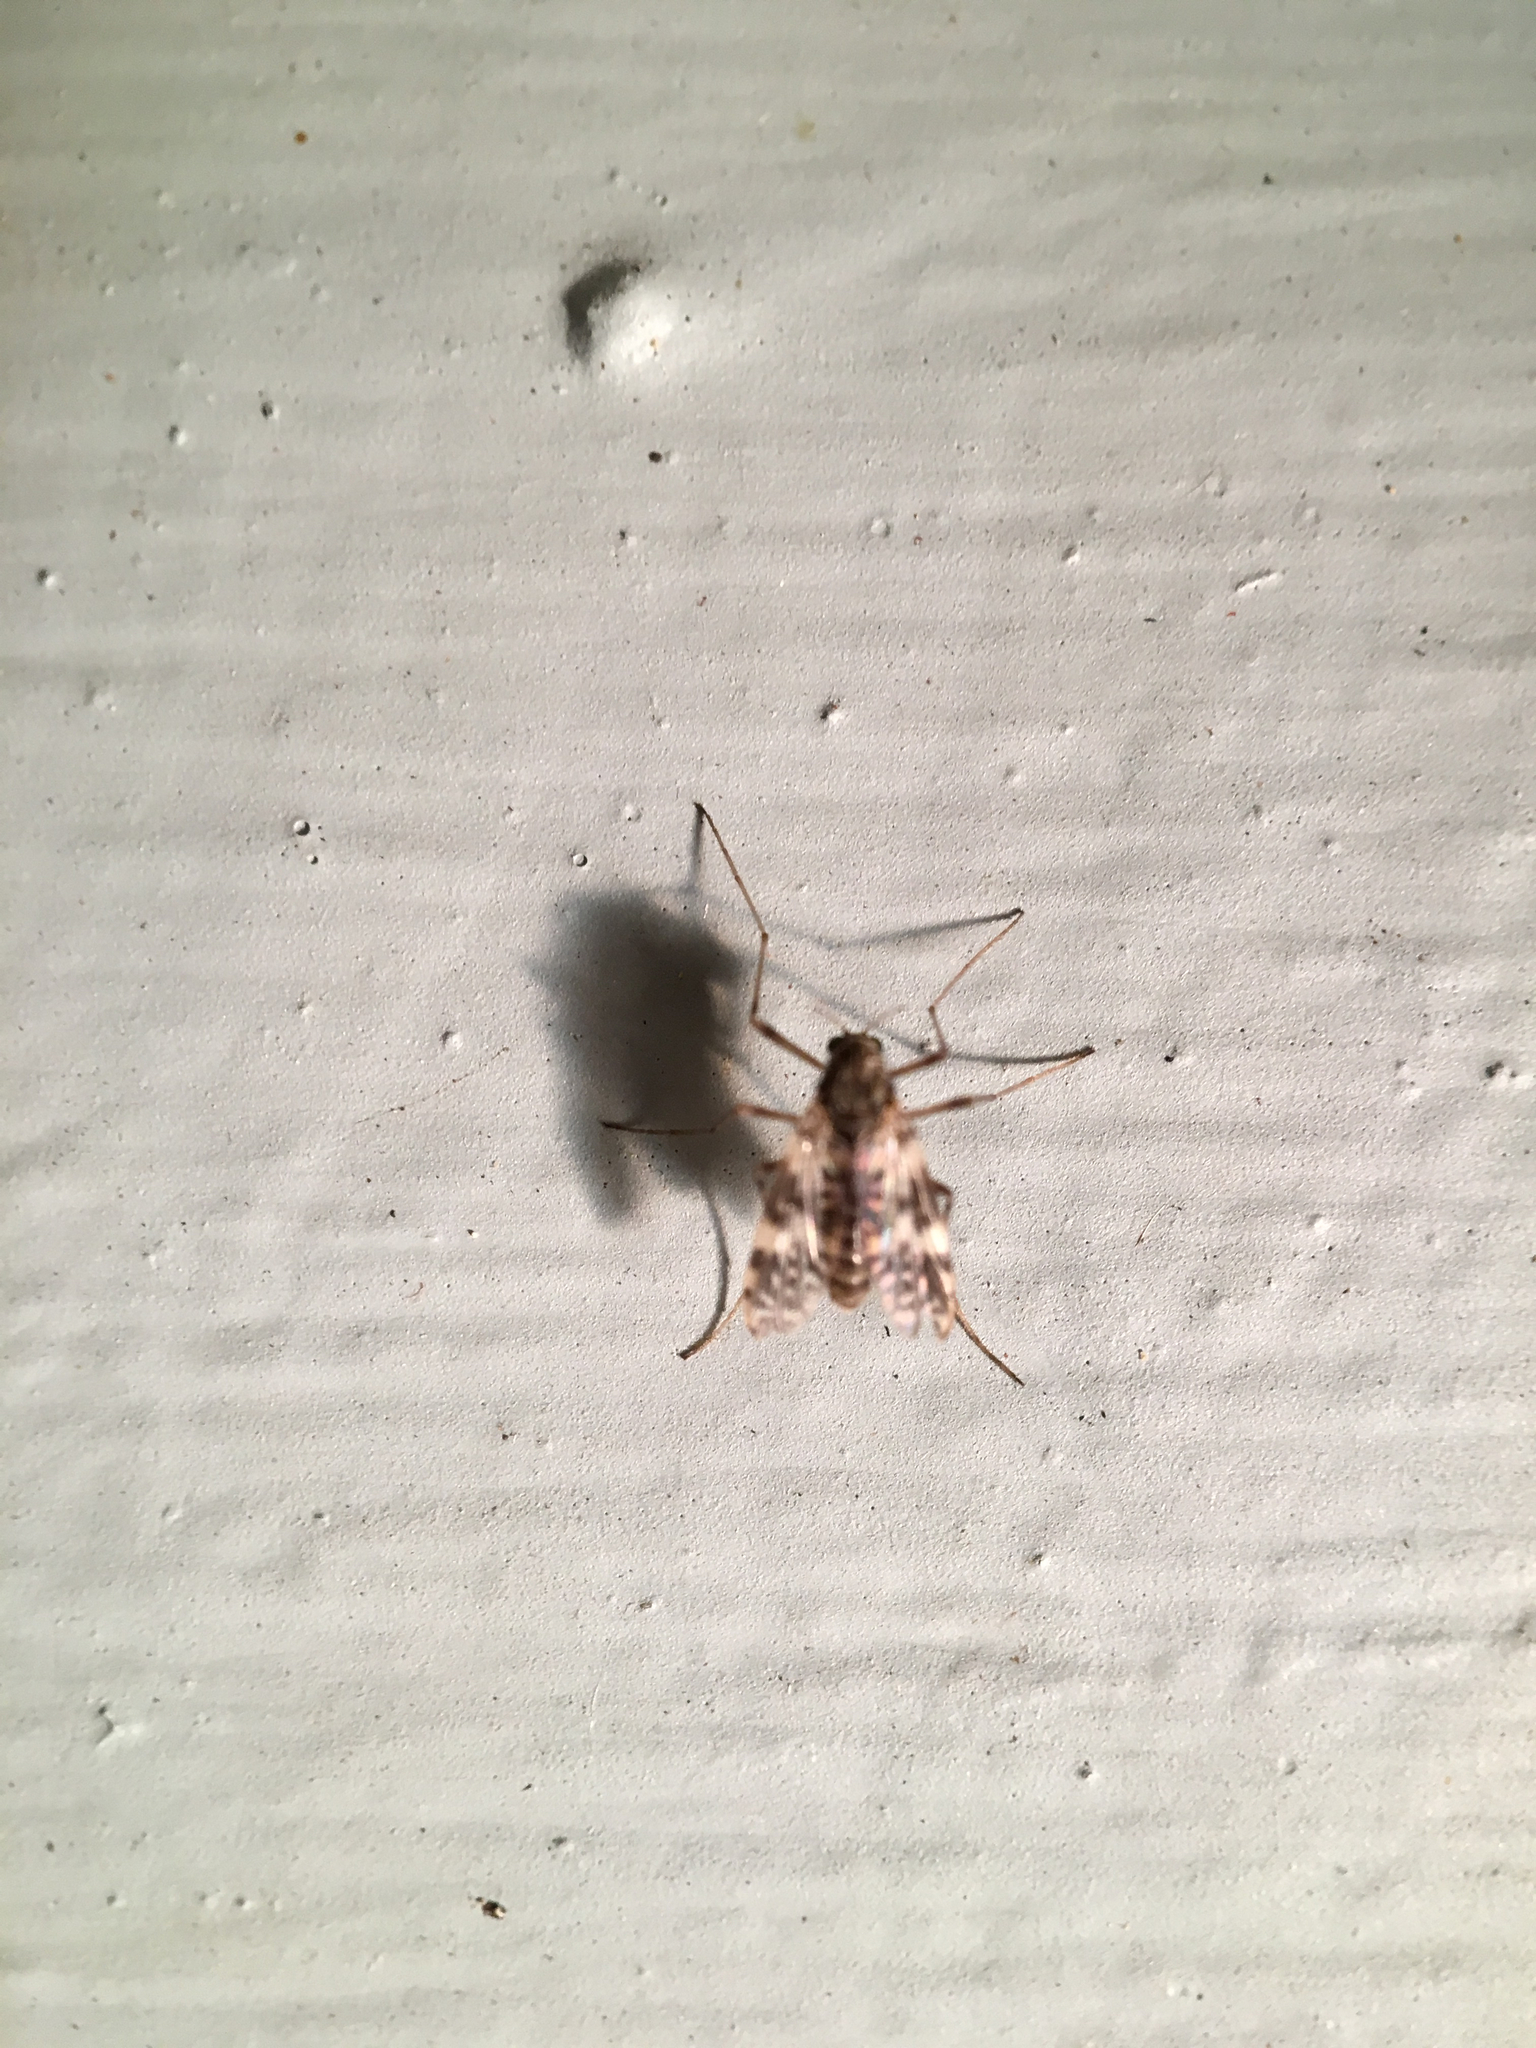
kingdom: Animalia
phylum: Arthropoda
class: Insecta
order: Diptera
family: Chironomidae
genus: Psectrotanypus
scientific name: Psectrotanypus dyari
